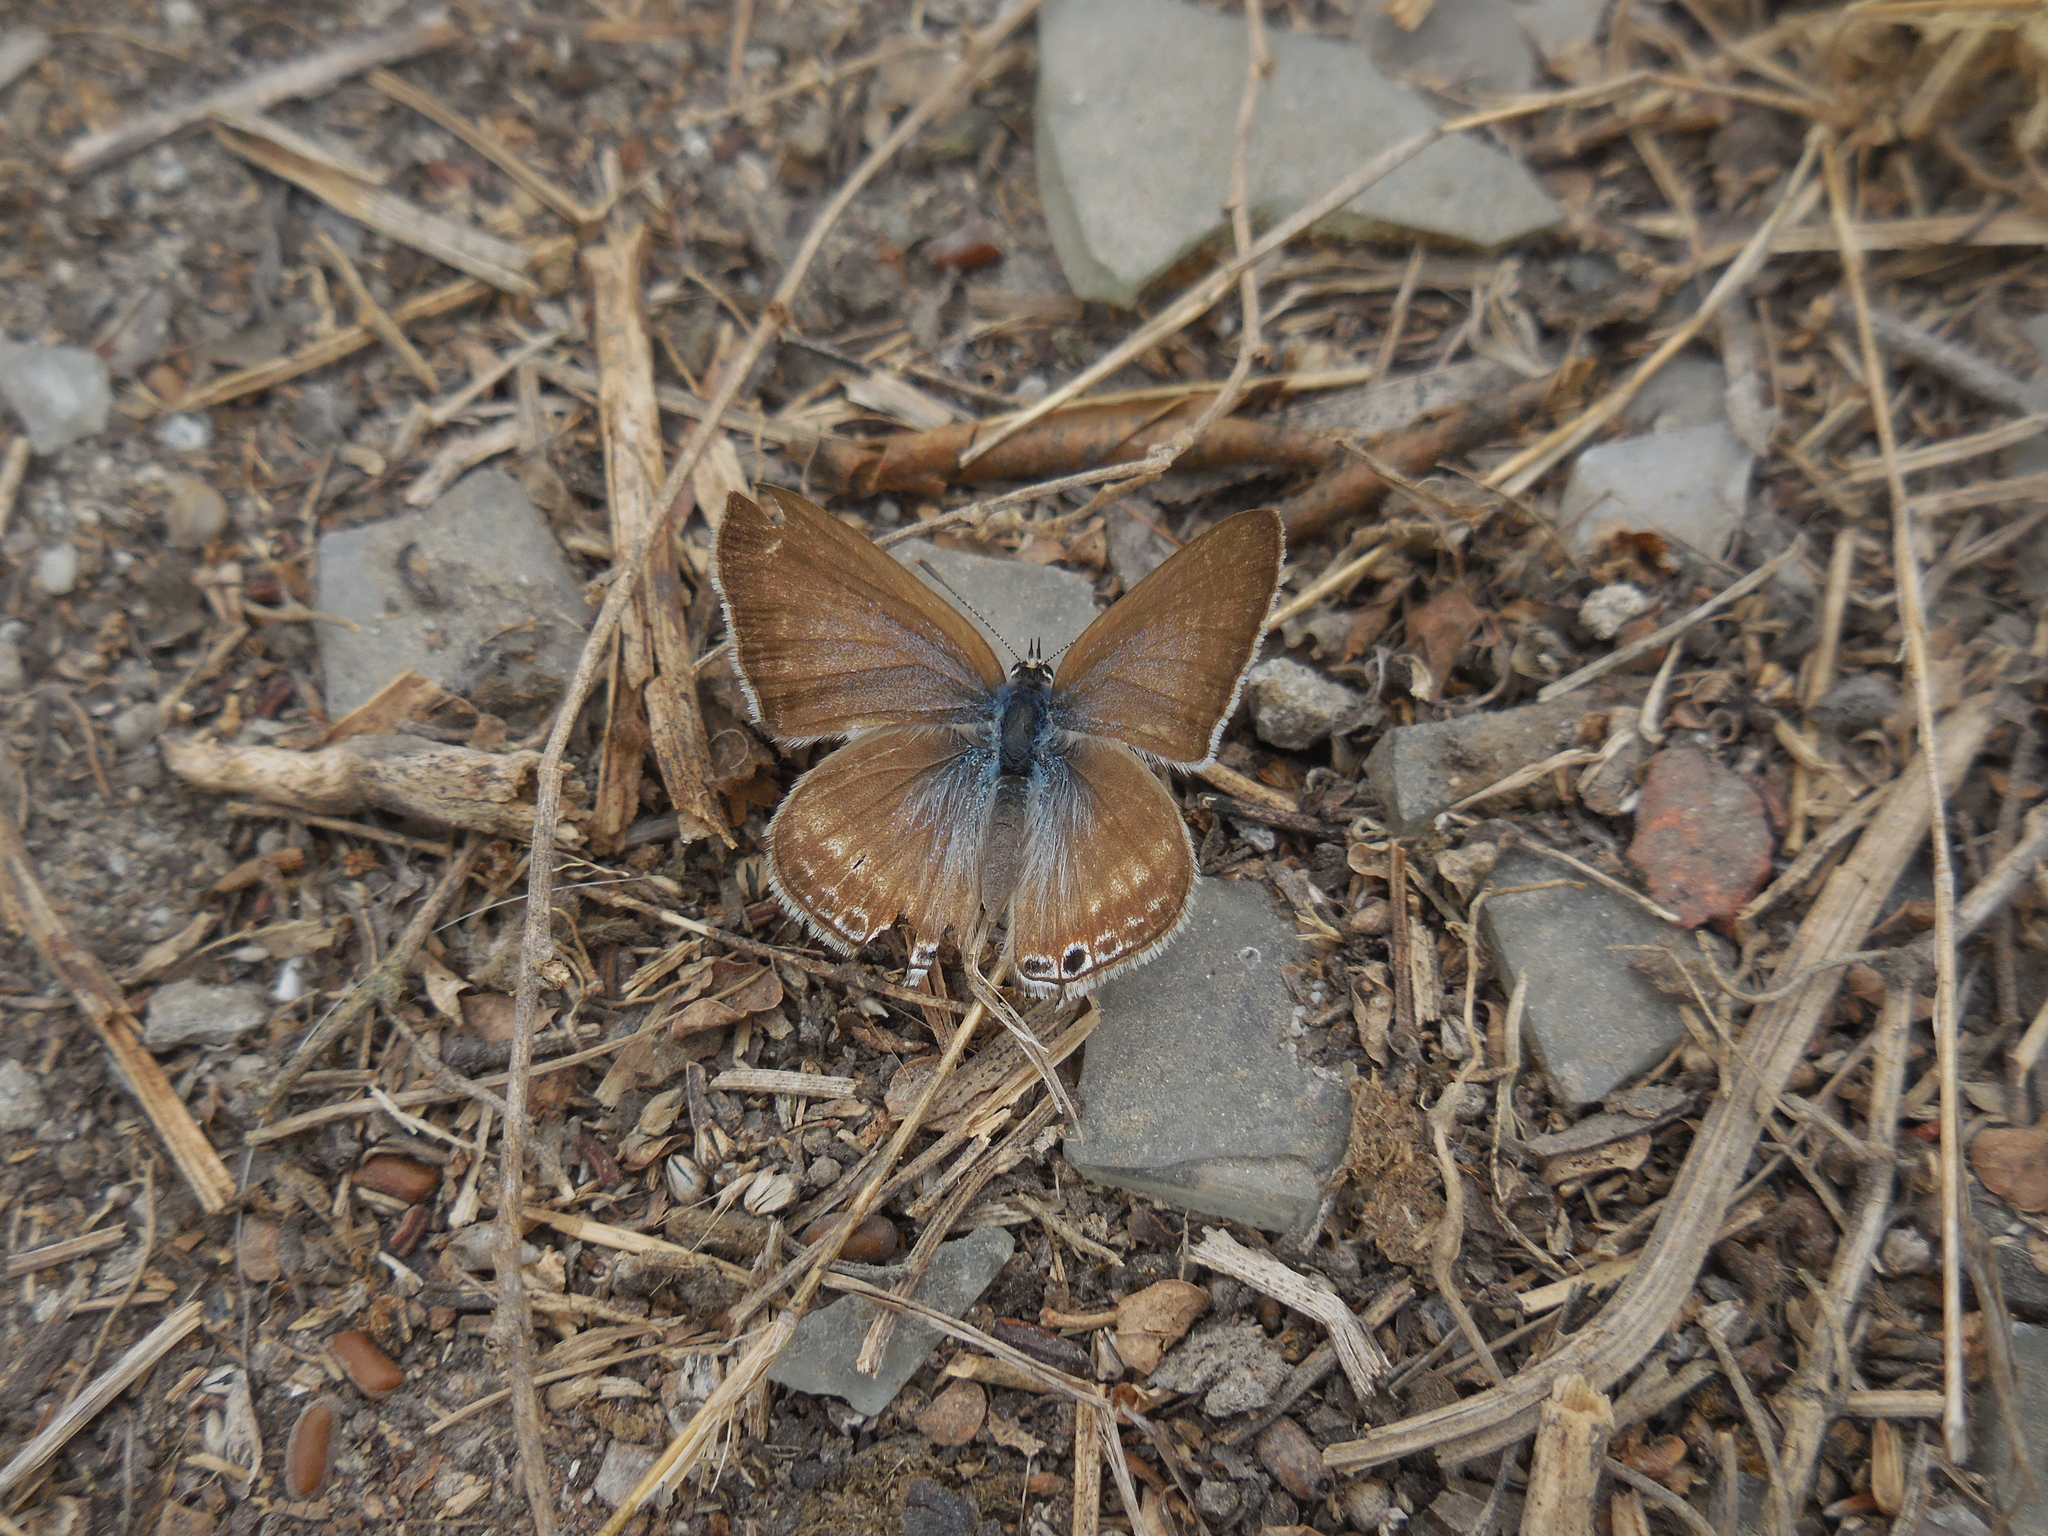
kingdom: Animalia
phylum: Arthropoda
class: Insecta
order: Lepidoptera
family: Lycaenidae
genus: Lampides
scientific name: Lampides boeticus
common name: Long-tailed blue
